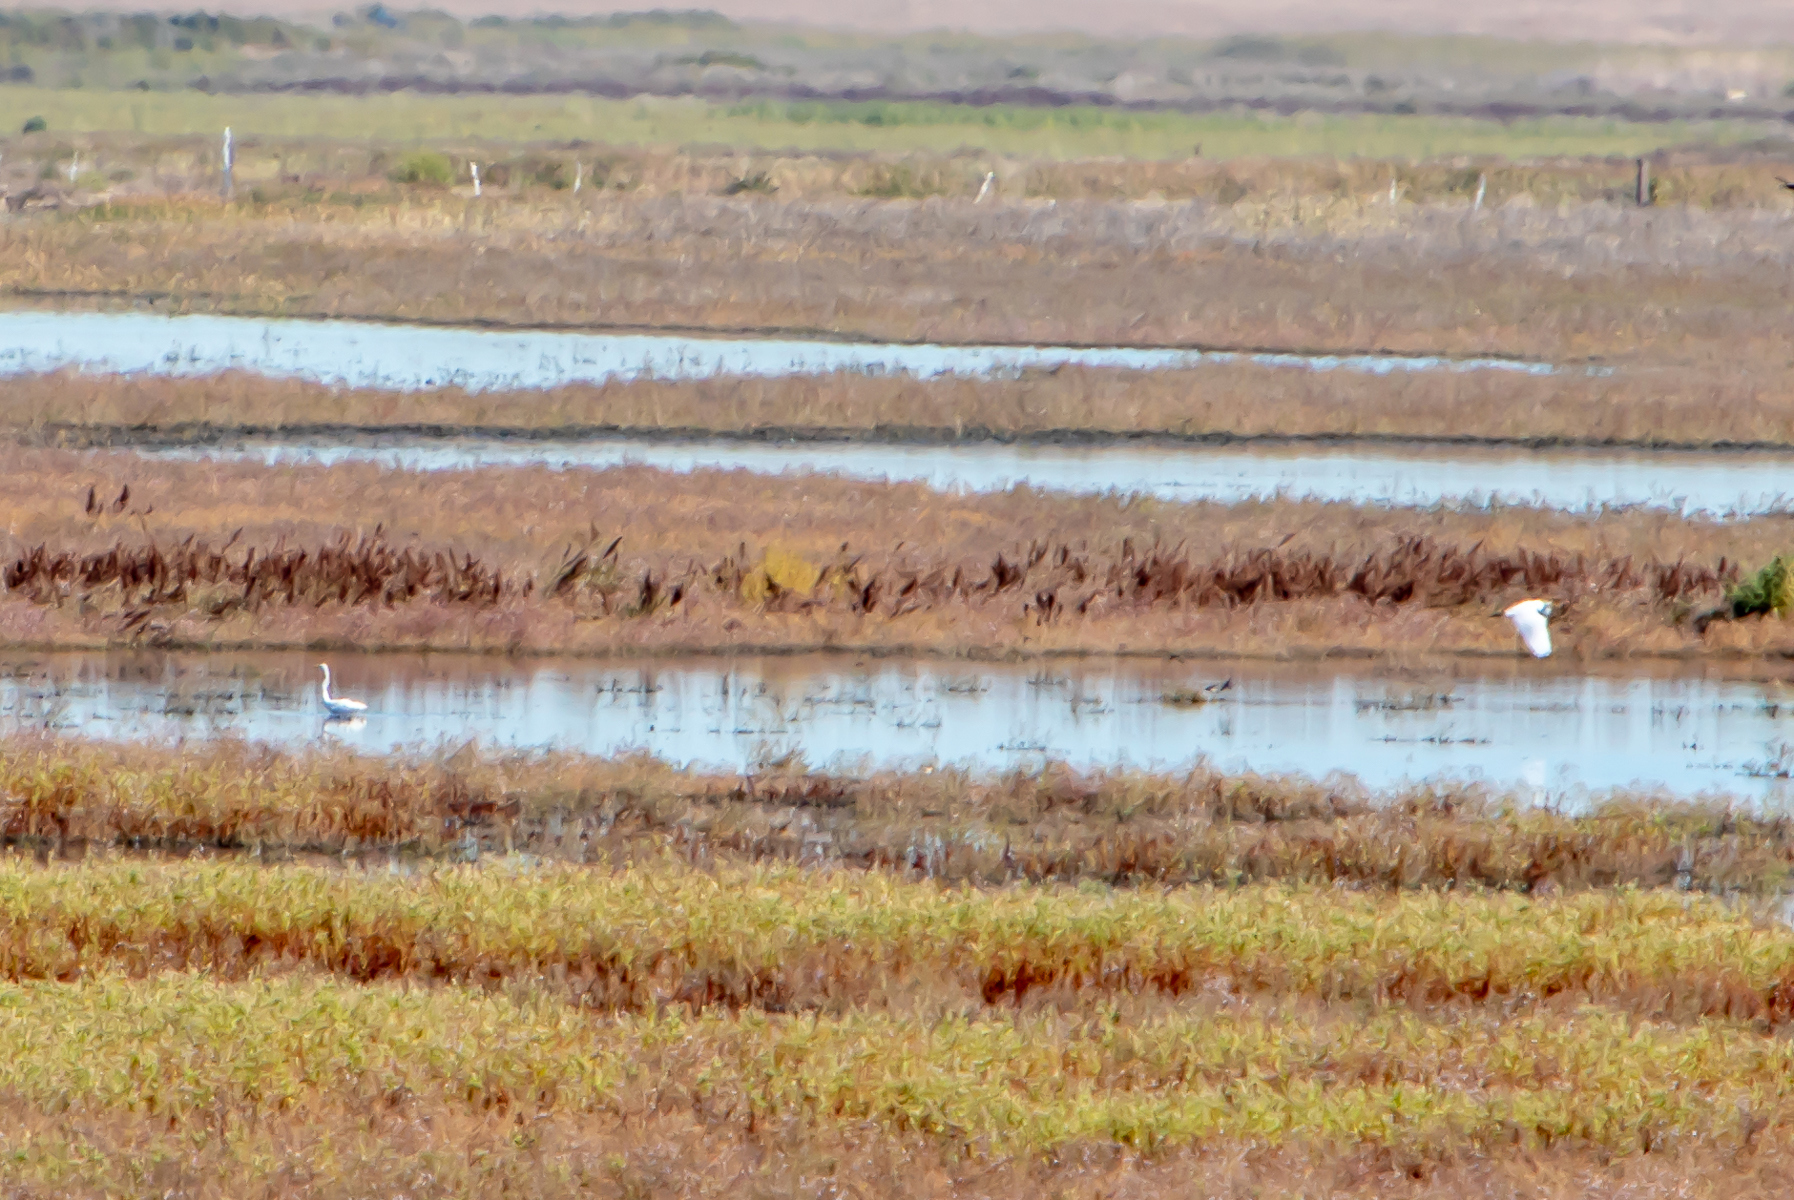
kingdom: Animalia
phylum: Chordata
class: Aves
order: Pelecaniformes
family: Ardeidae
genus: Ardea
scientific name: Ardea alba
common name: Great egret
